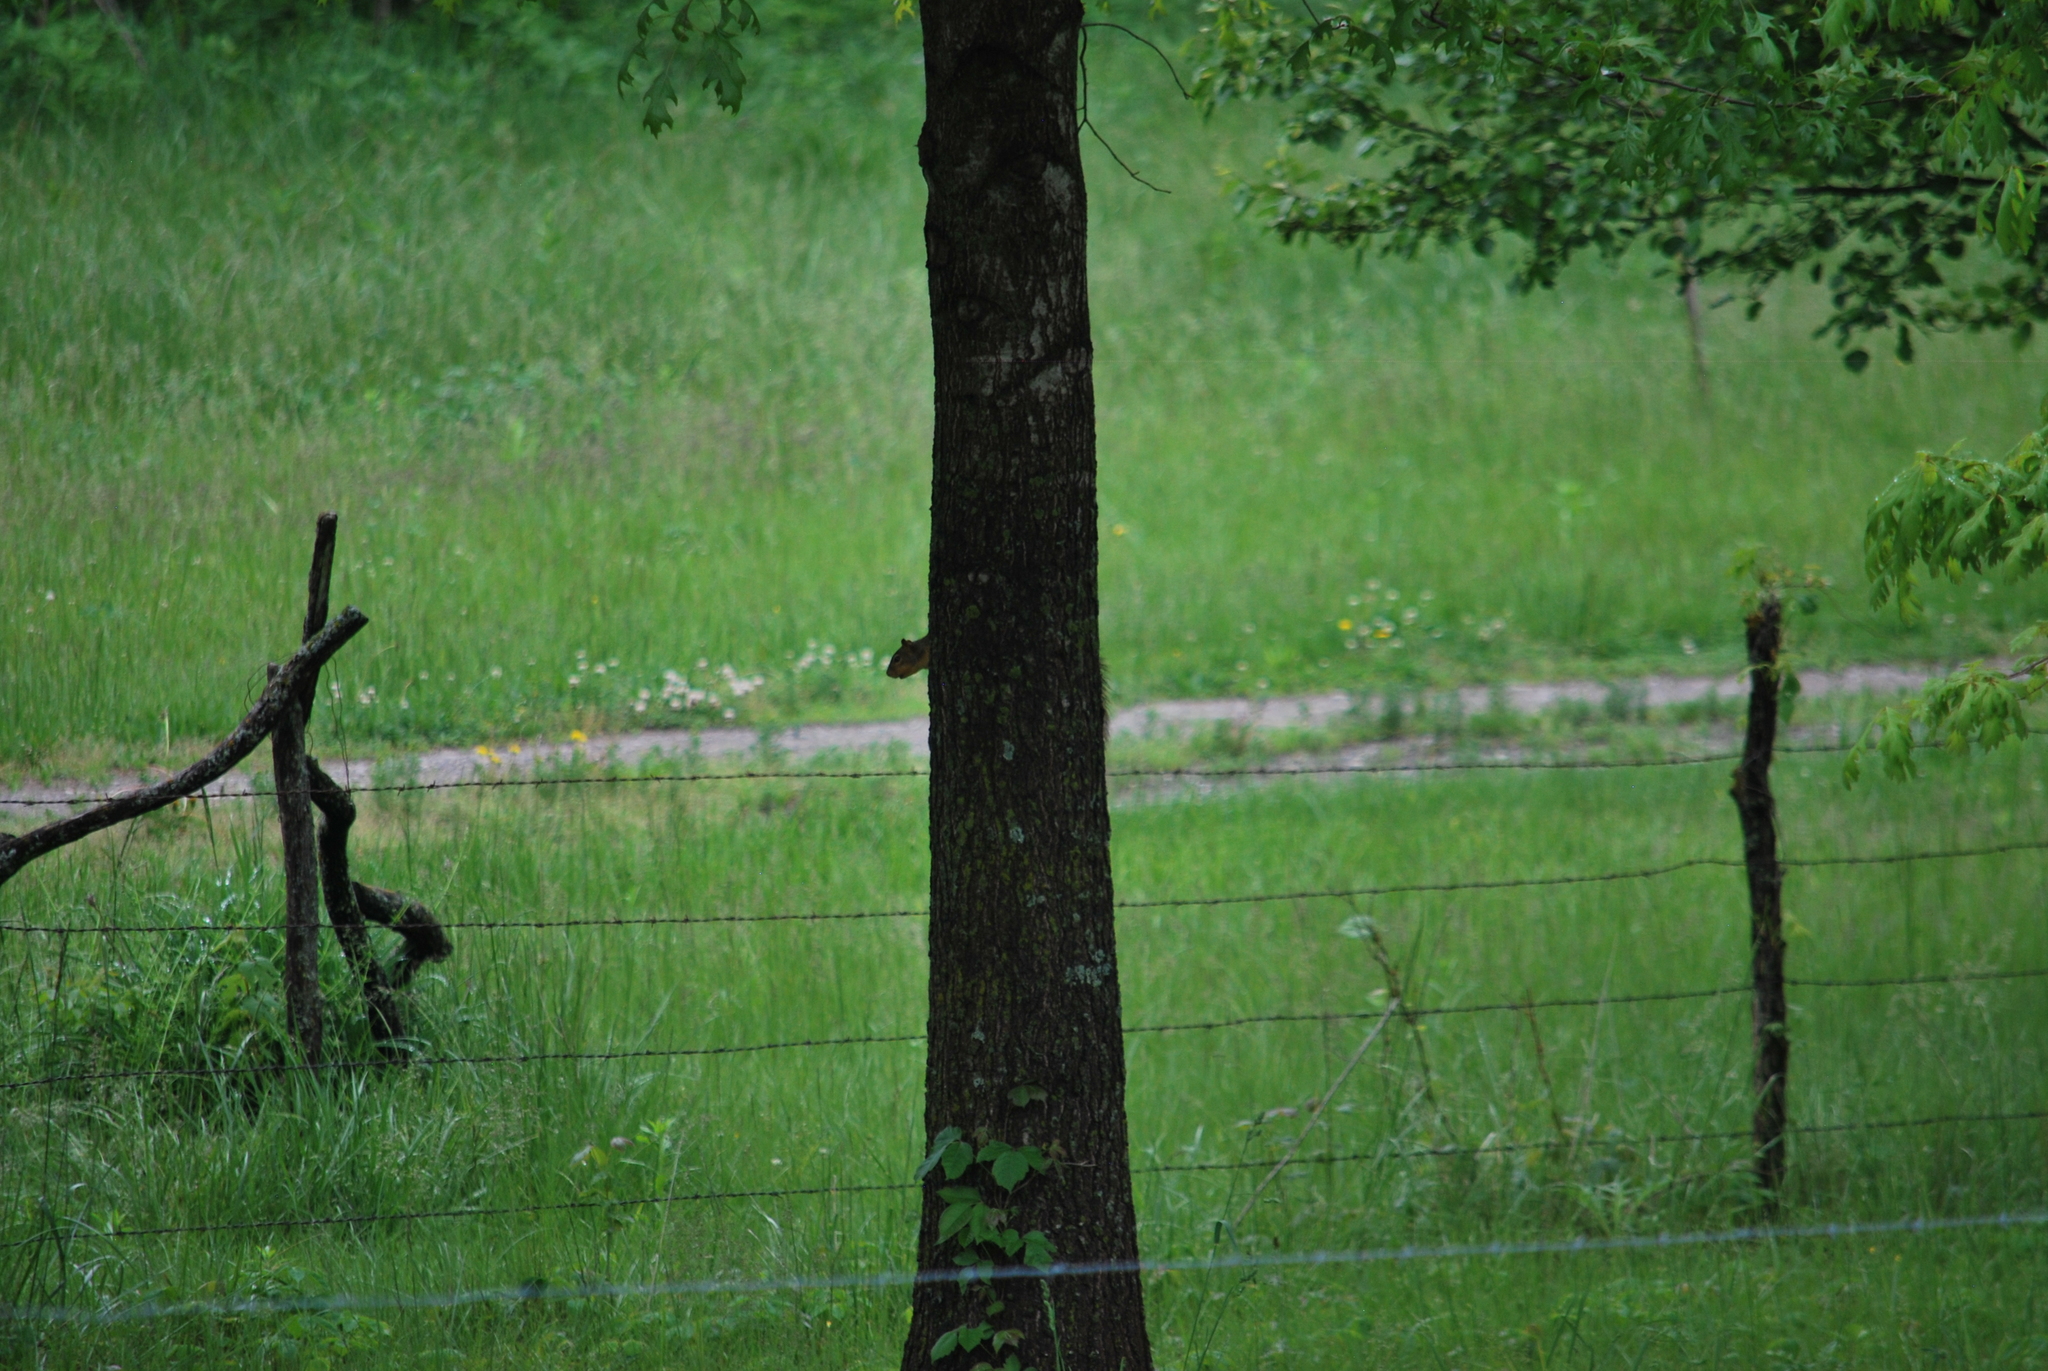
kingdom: Animalia
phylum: Chordata
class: Mammalia
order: Rodentia
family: Sciuridae
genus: Sciurus
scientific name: Sciurus niger
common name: Fox squirrel
